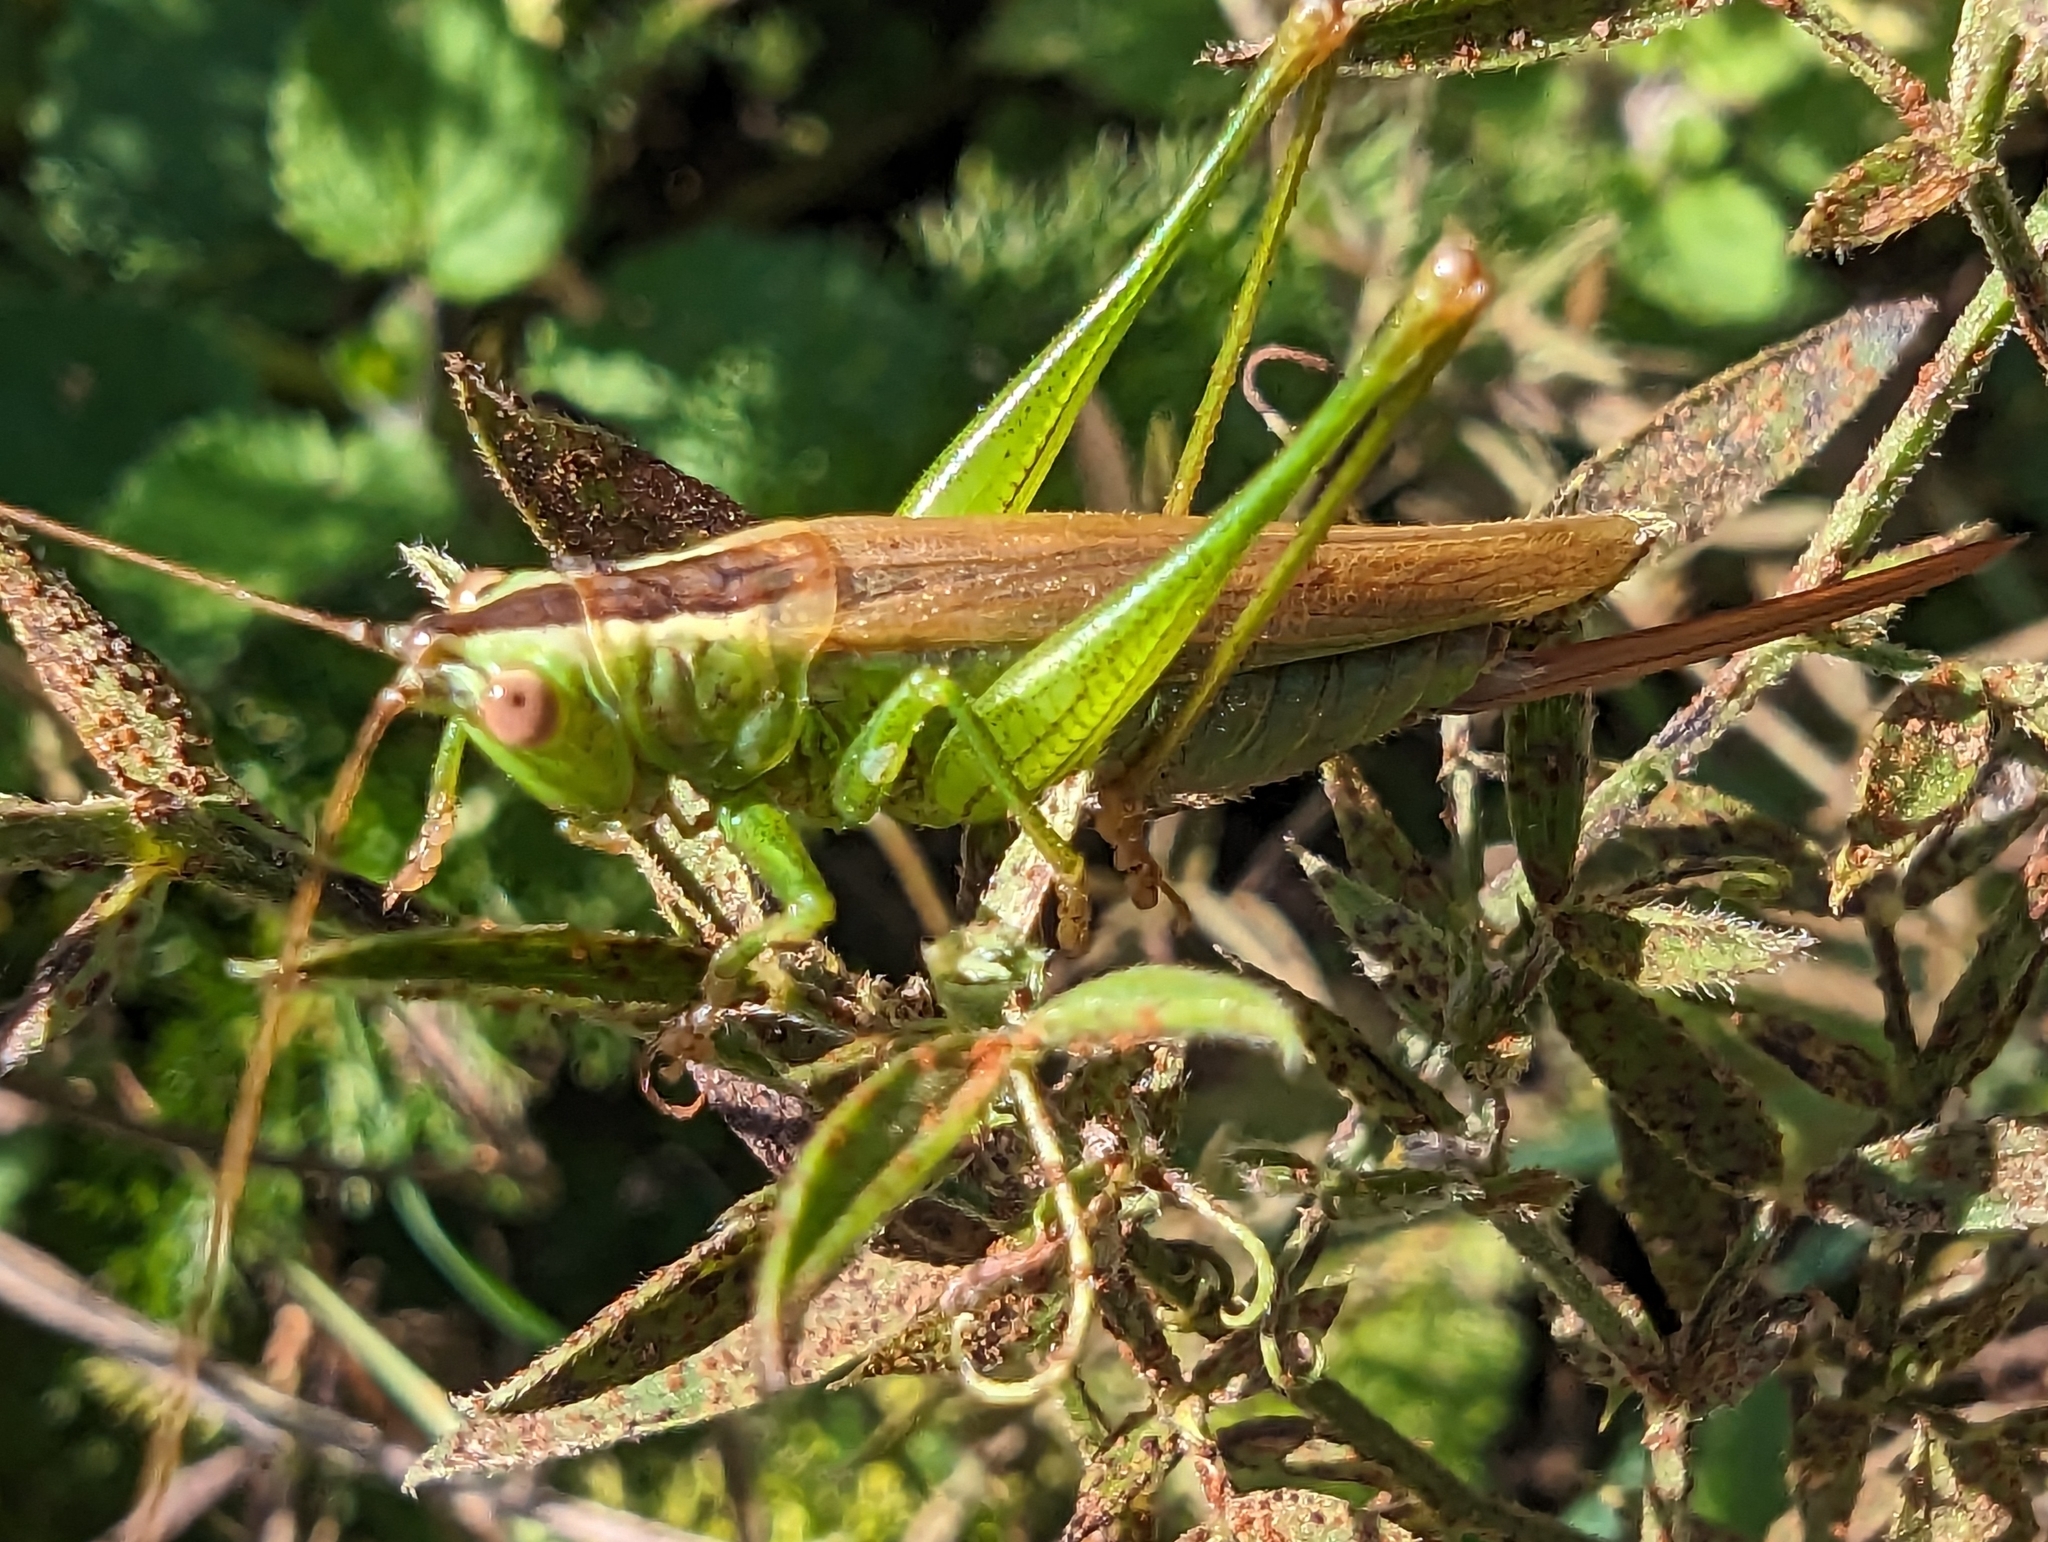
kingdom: Animalia
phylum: Arthropoda
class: Insecta
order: Orthoptera
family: Tettigoniidae
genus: Conocephalus
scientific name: Conocephalus fuscus
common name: Long-winged conehead
